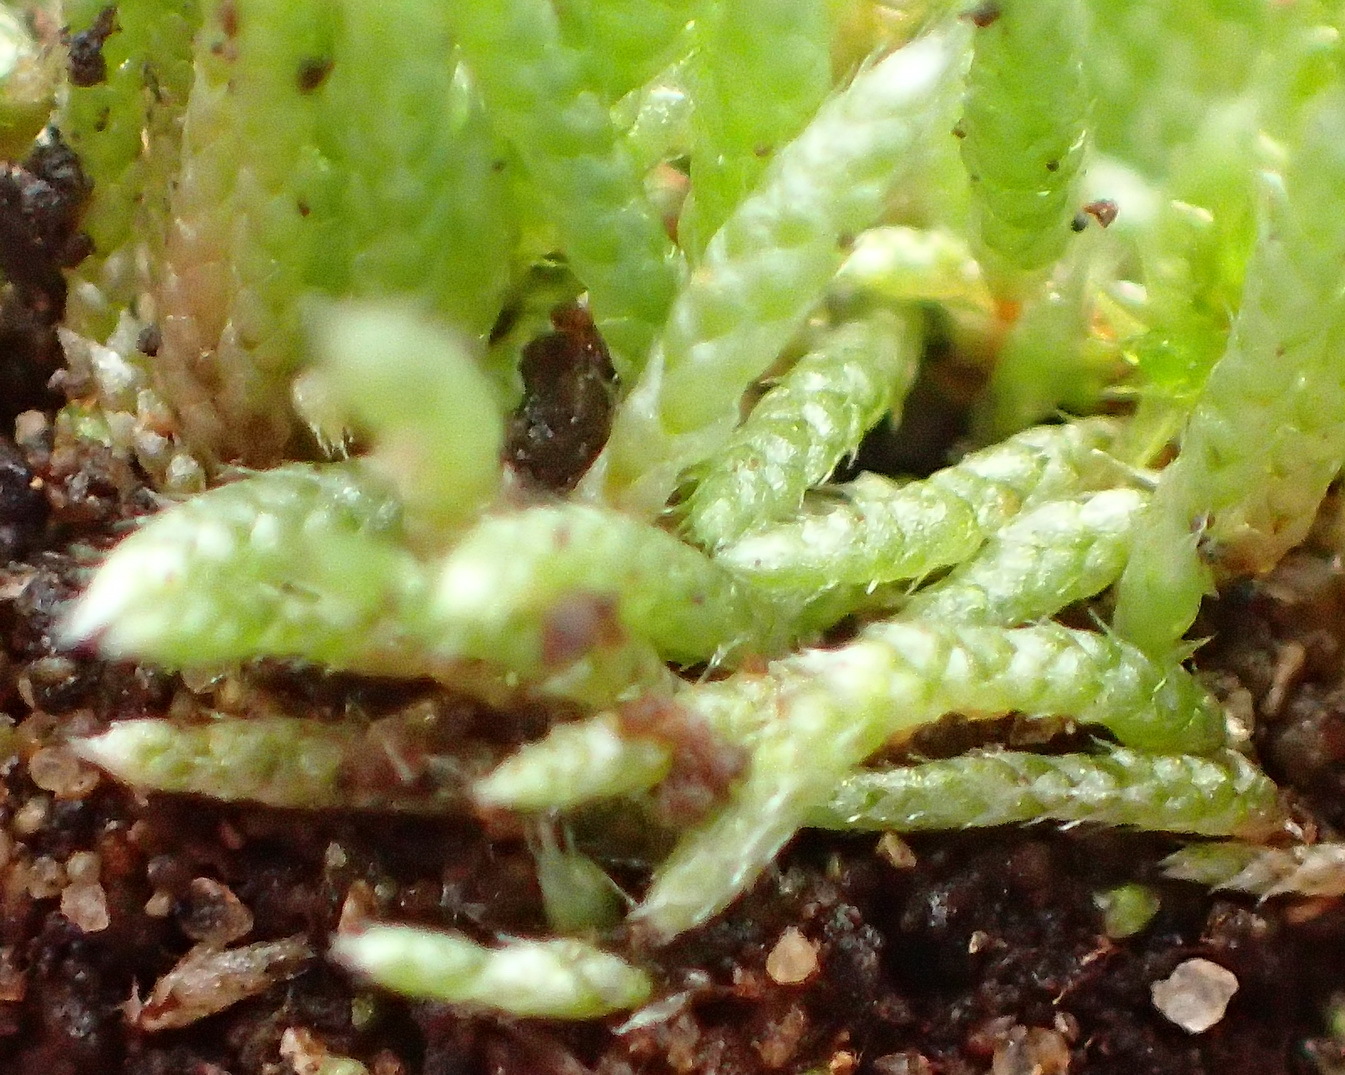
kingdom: Plantae
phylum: Bryophyta
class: Bryopsida
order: Bryales
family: Bryaceae
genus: Bryum
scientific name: Bryum argenteum
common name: Silver-moss
